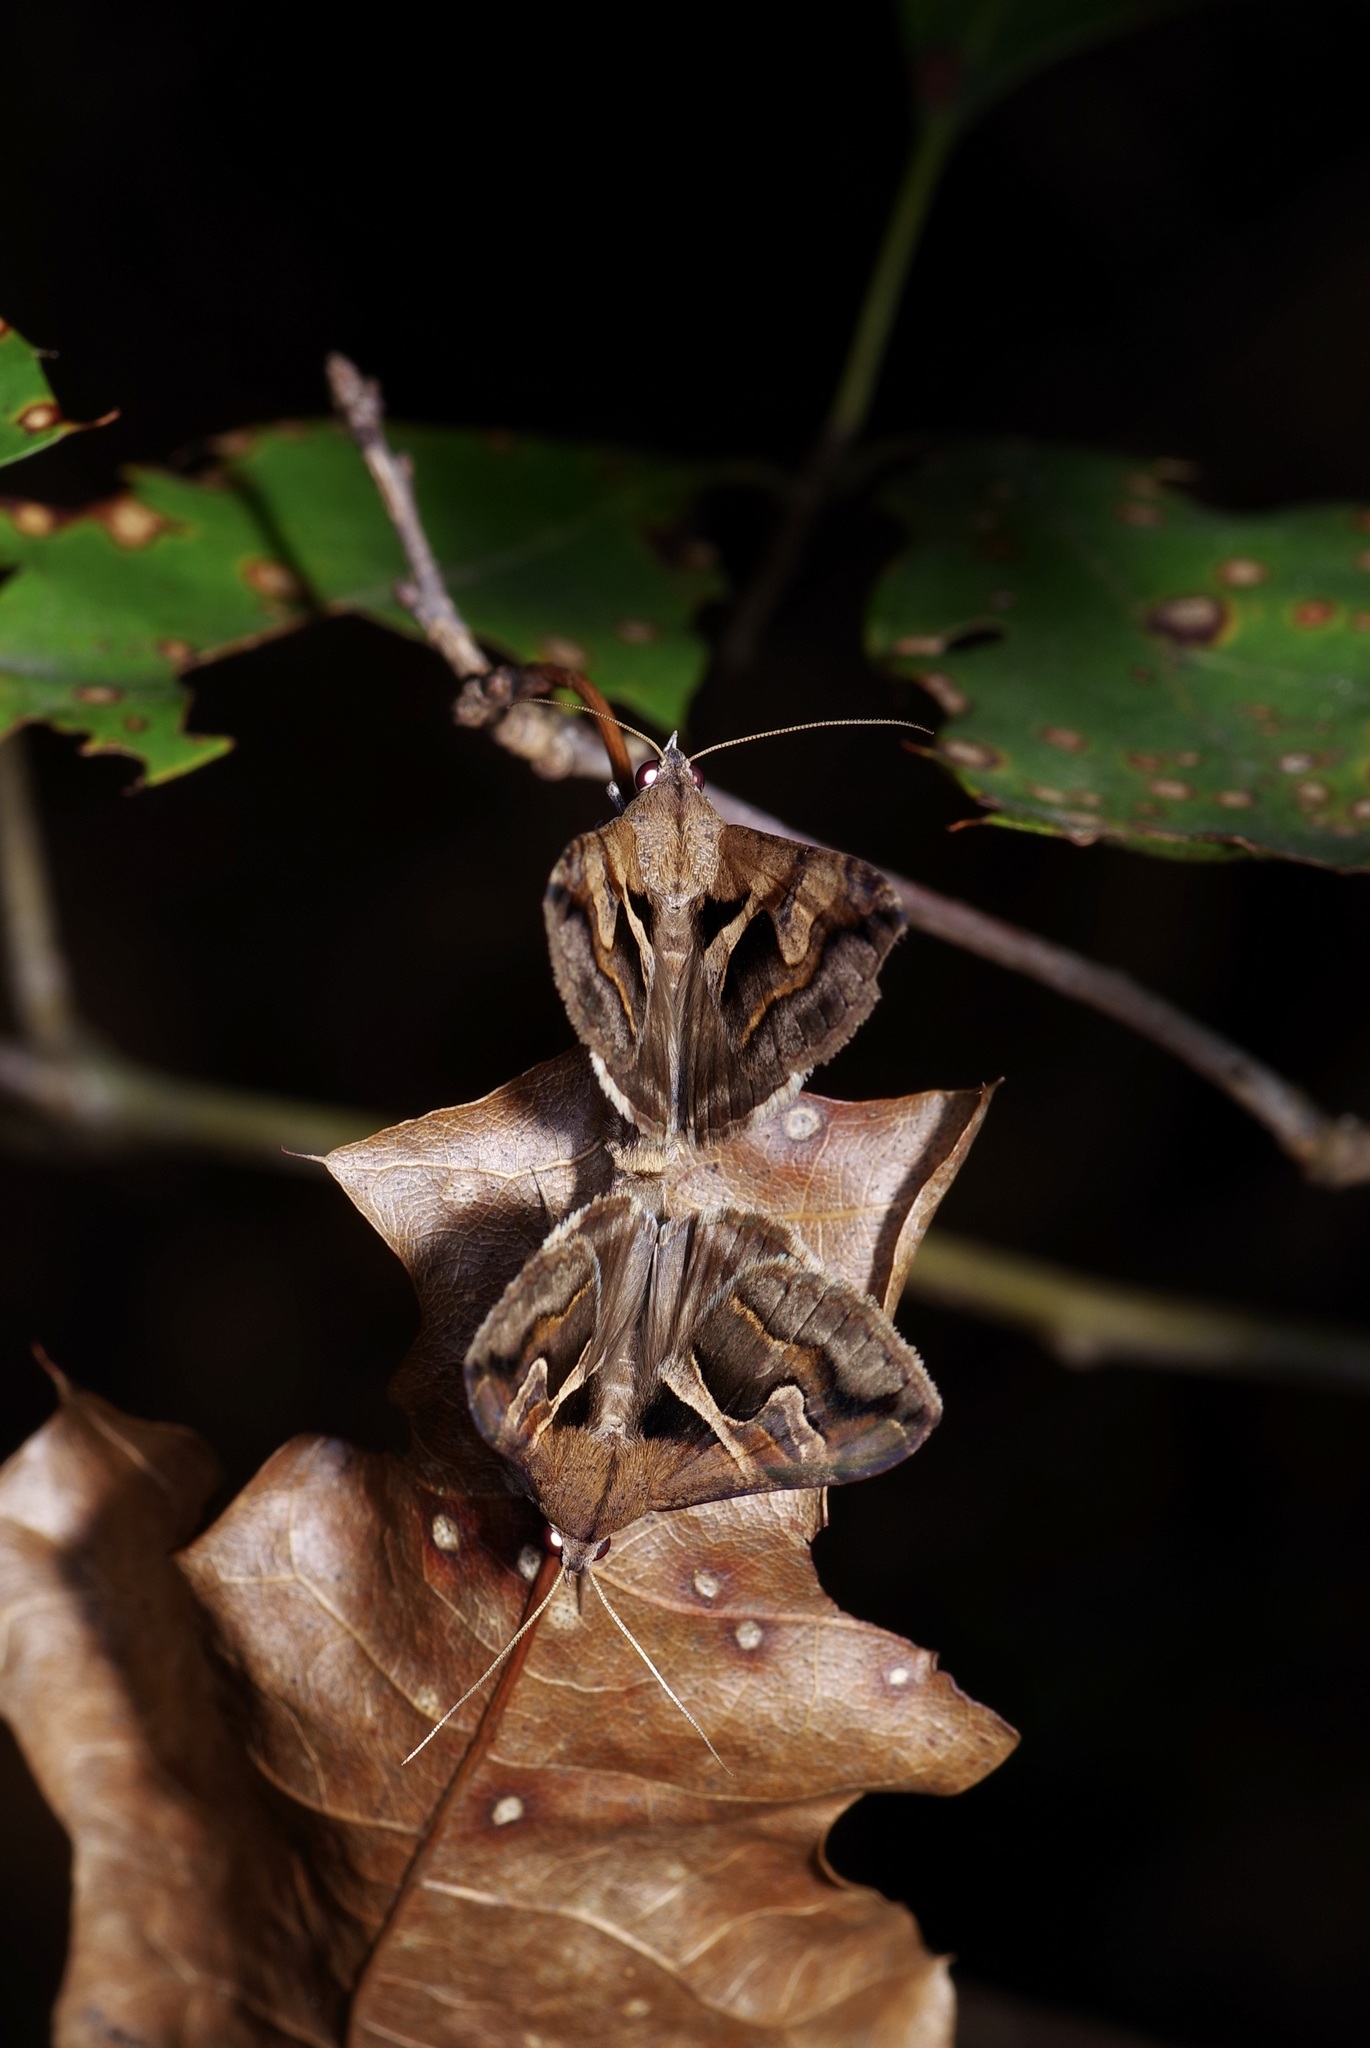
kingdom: Animalia
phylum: Arthropoda
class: Insecta
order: Lepidoptera
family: Erebidae
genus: Melipotis
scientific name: Melipotis cellaris
